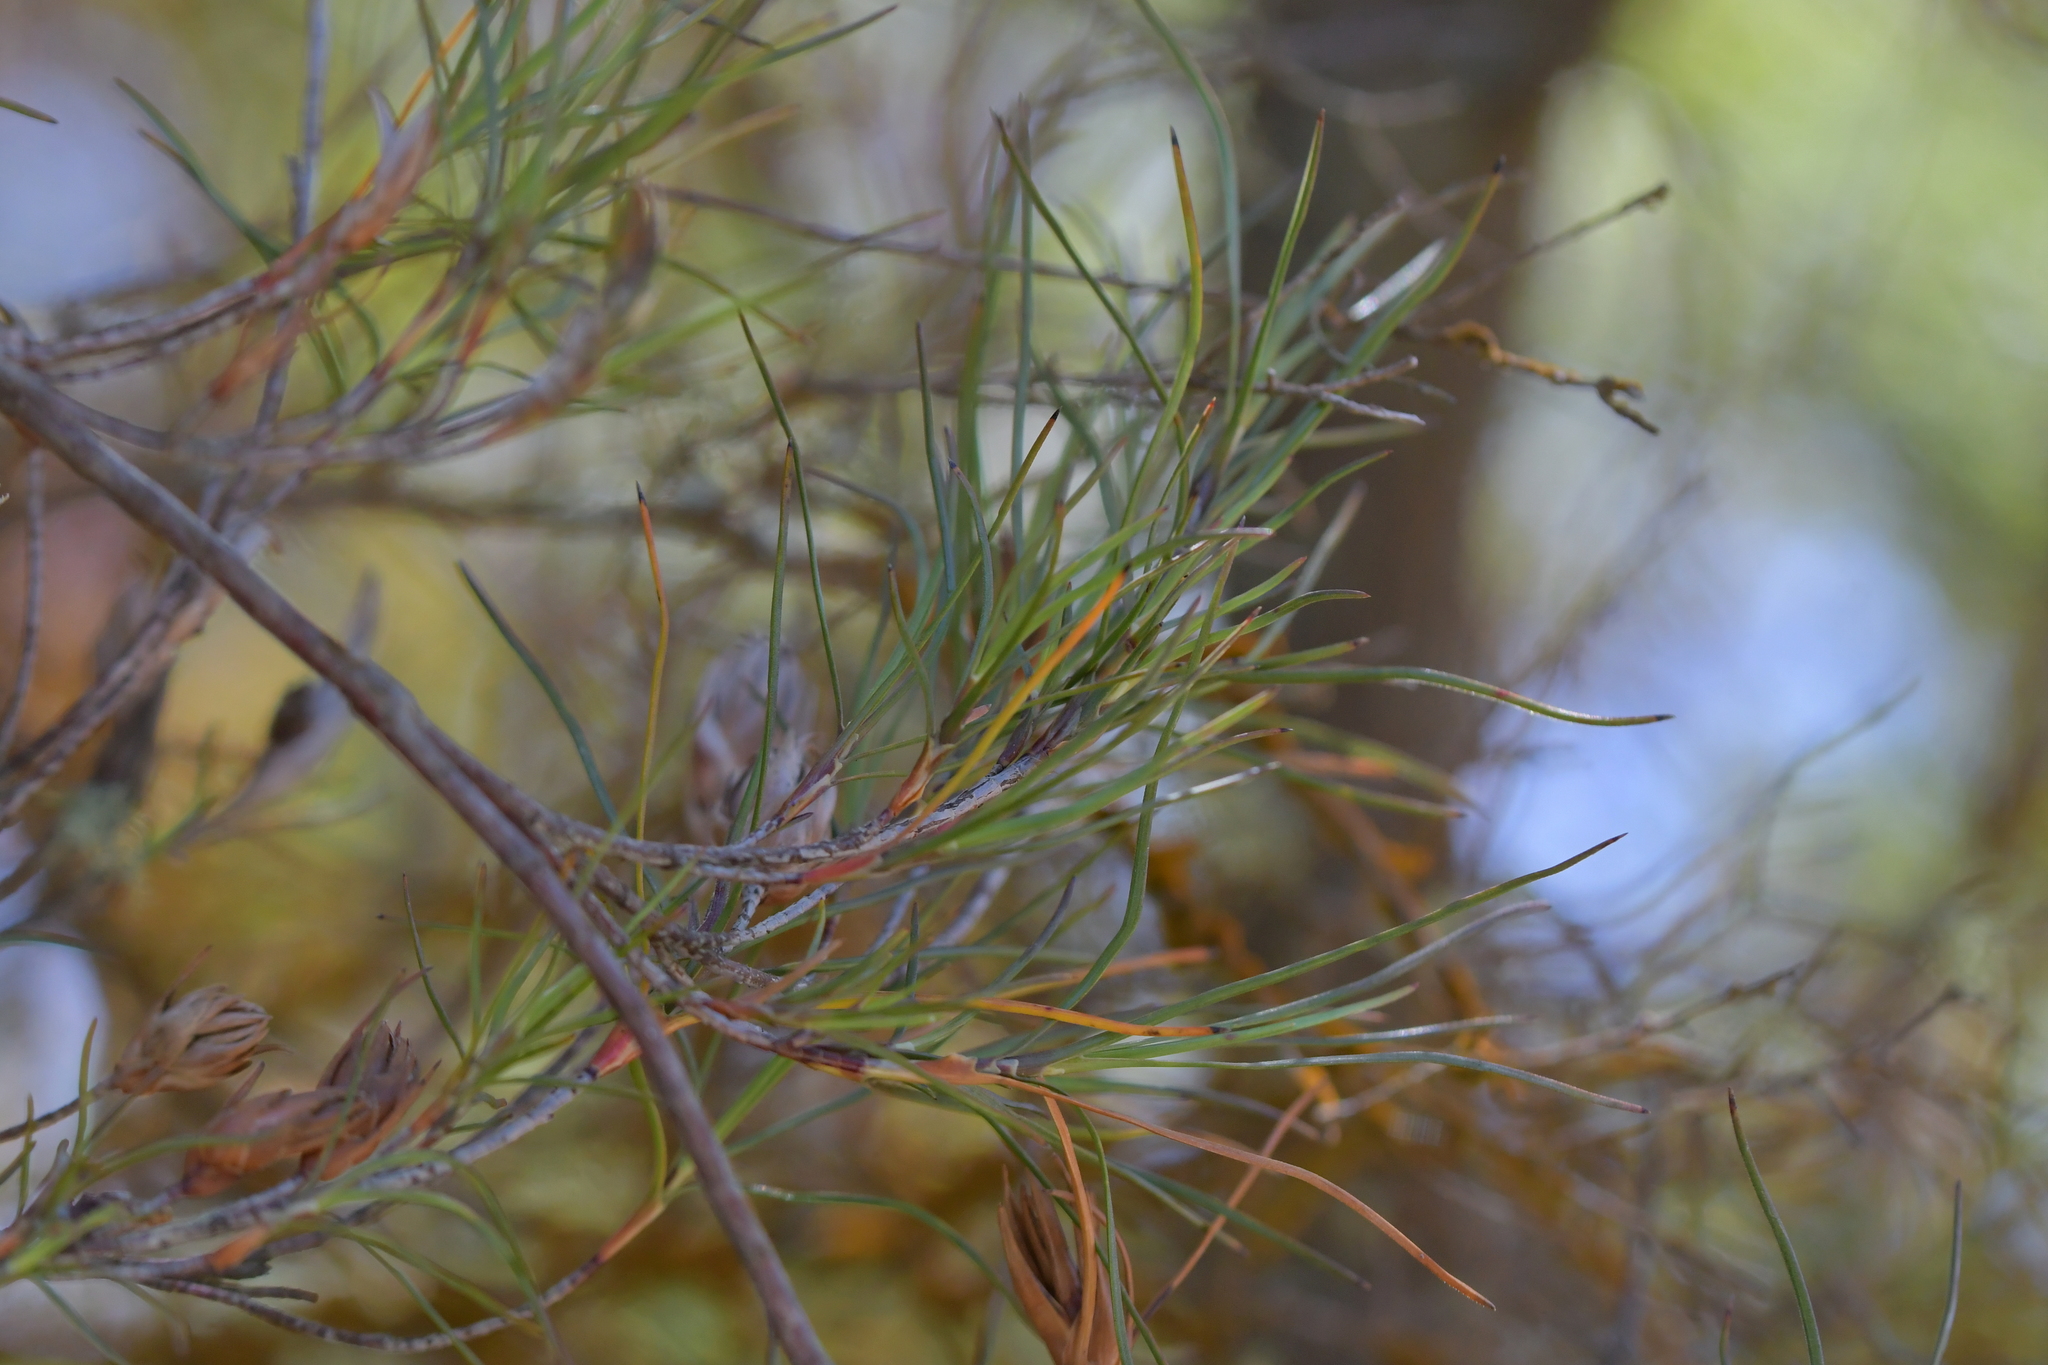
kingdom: Plantae
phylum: Tracheophyta
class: Magnoliopsida
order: Ericales
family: Ericaceae
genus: Dracophyllum
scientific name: Dracophyllum subulatum
